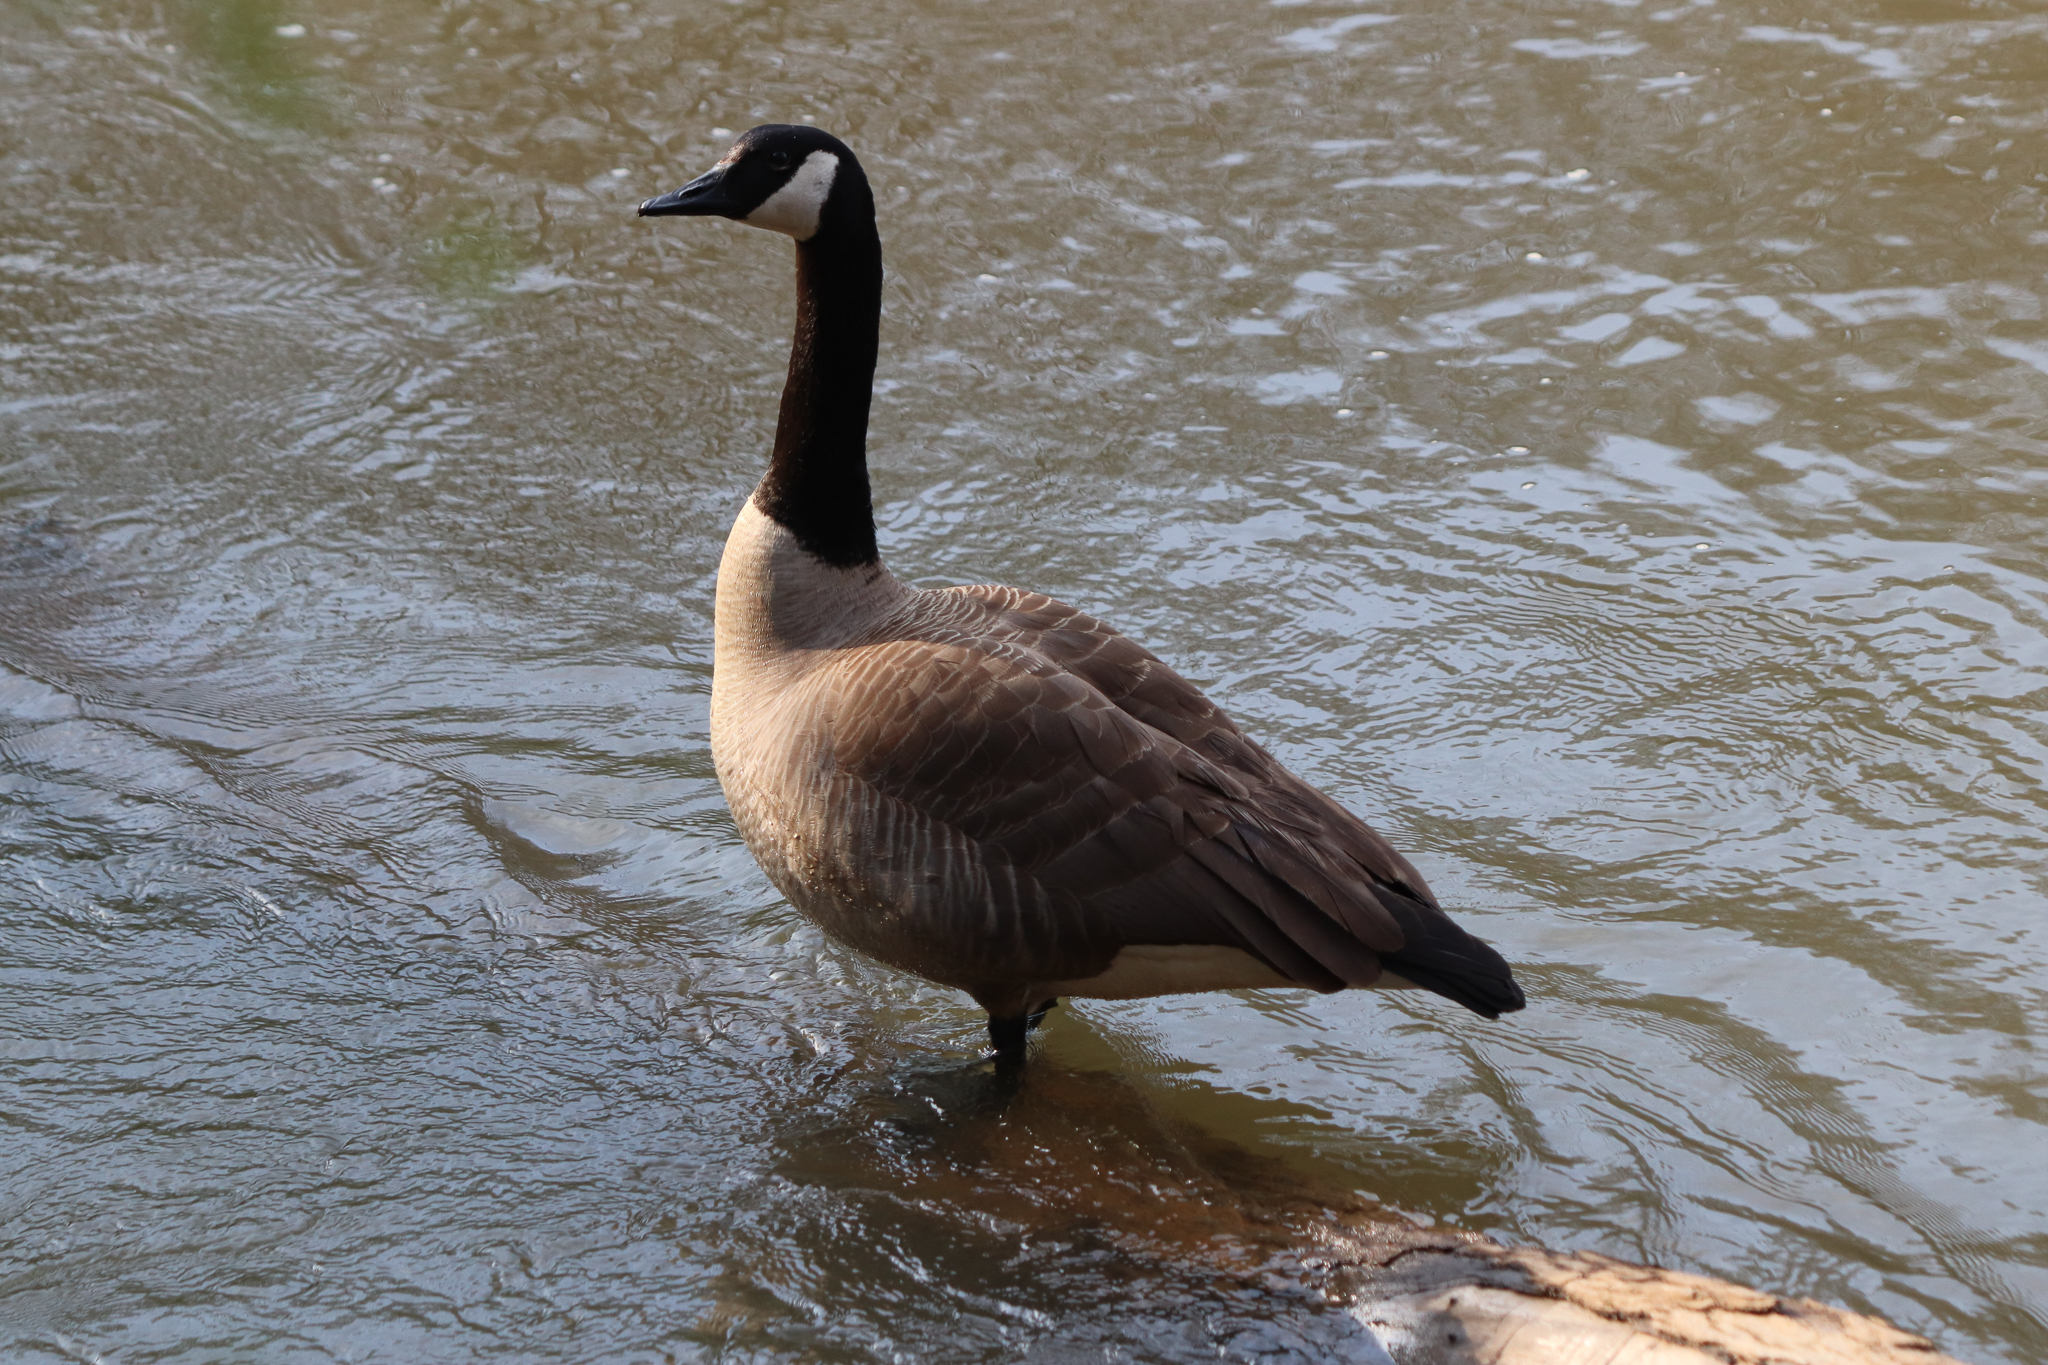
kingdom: Animalia
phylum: Chordata
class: Aves
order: Anseriformes
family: Anatidae
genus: Branta
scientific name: Branta canadensis
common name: Canada goose
